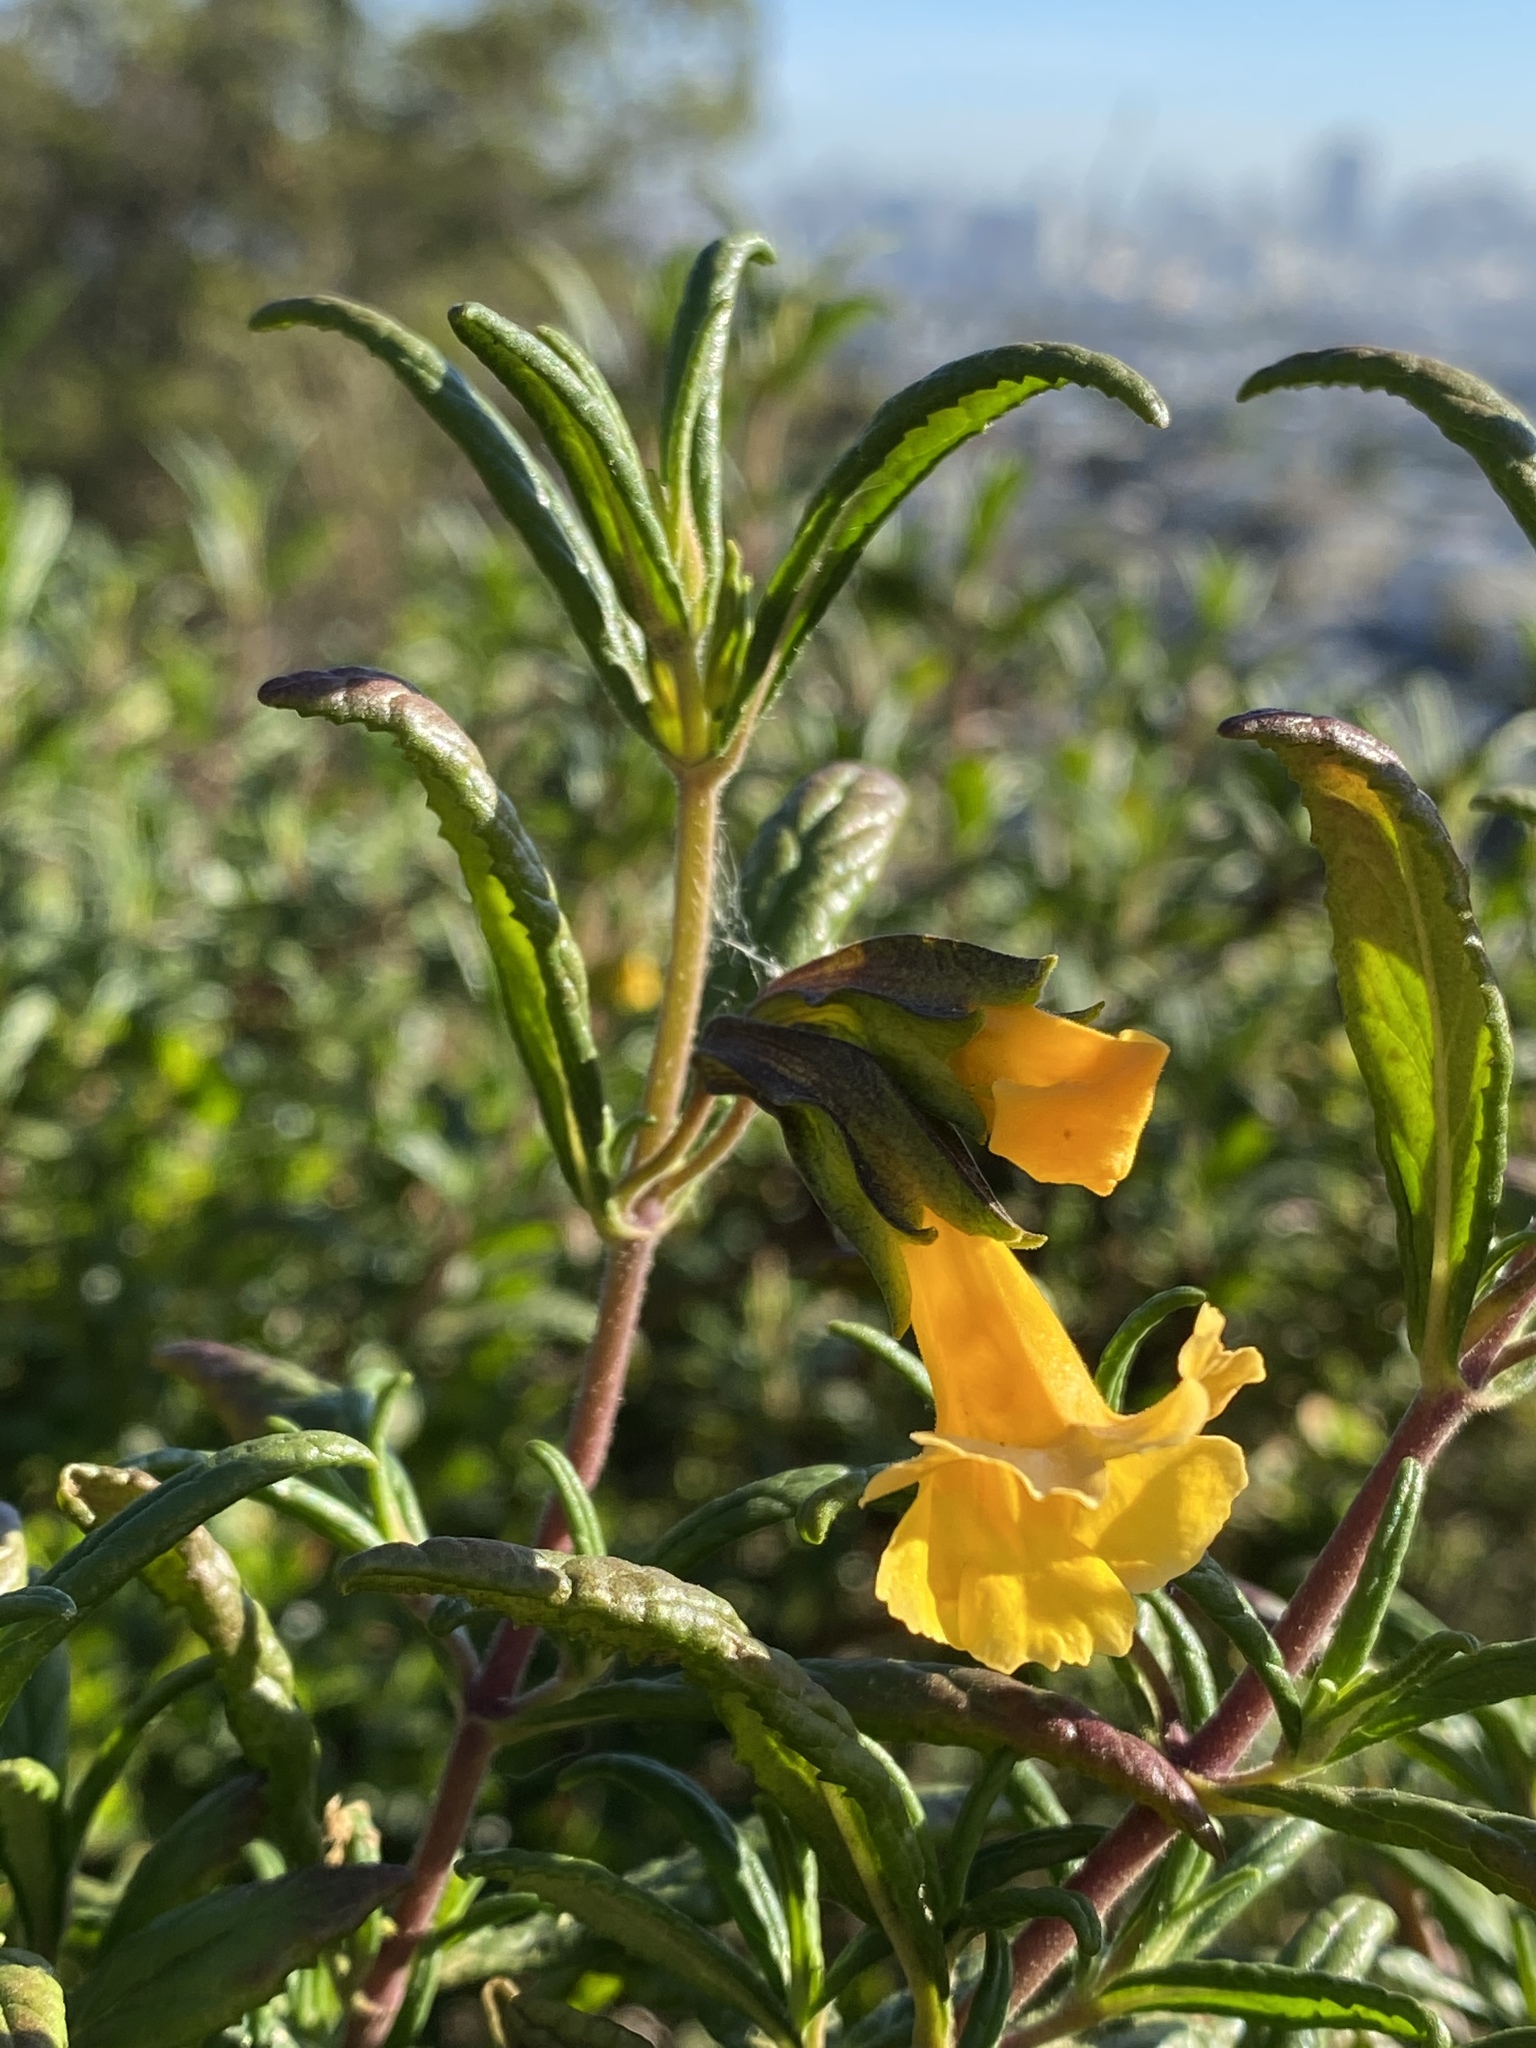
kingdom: Plantae
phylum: Tracheophyta
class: Magnoliopsida
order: Lamiales
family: Phrymaceae
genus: Diplacus
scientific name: Diplacus aurantiacus
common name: Bush monkey-flower
